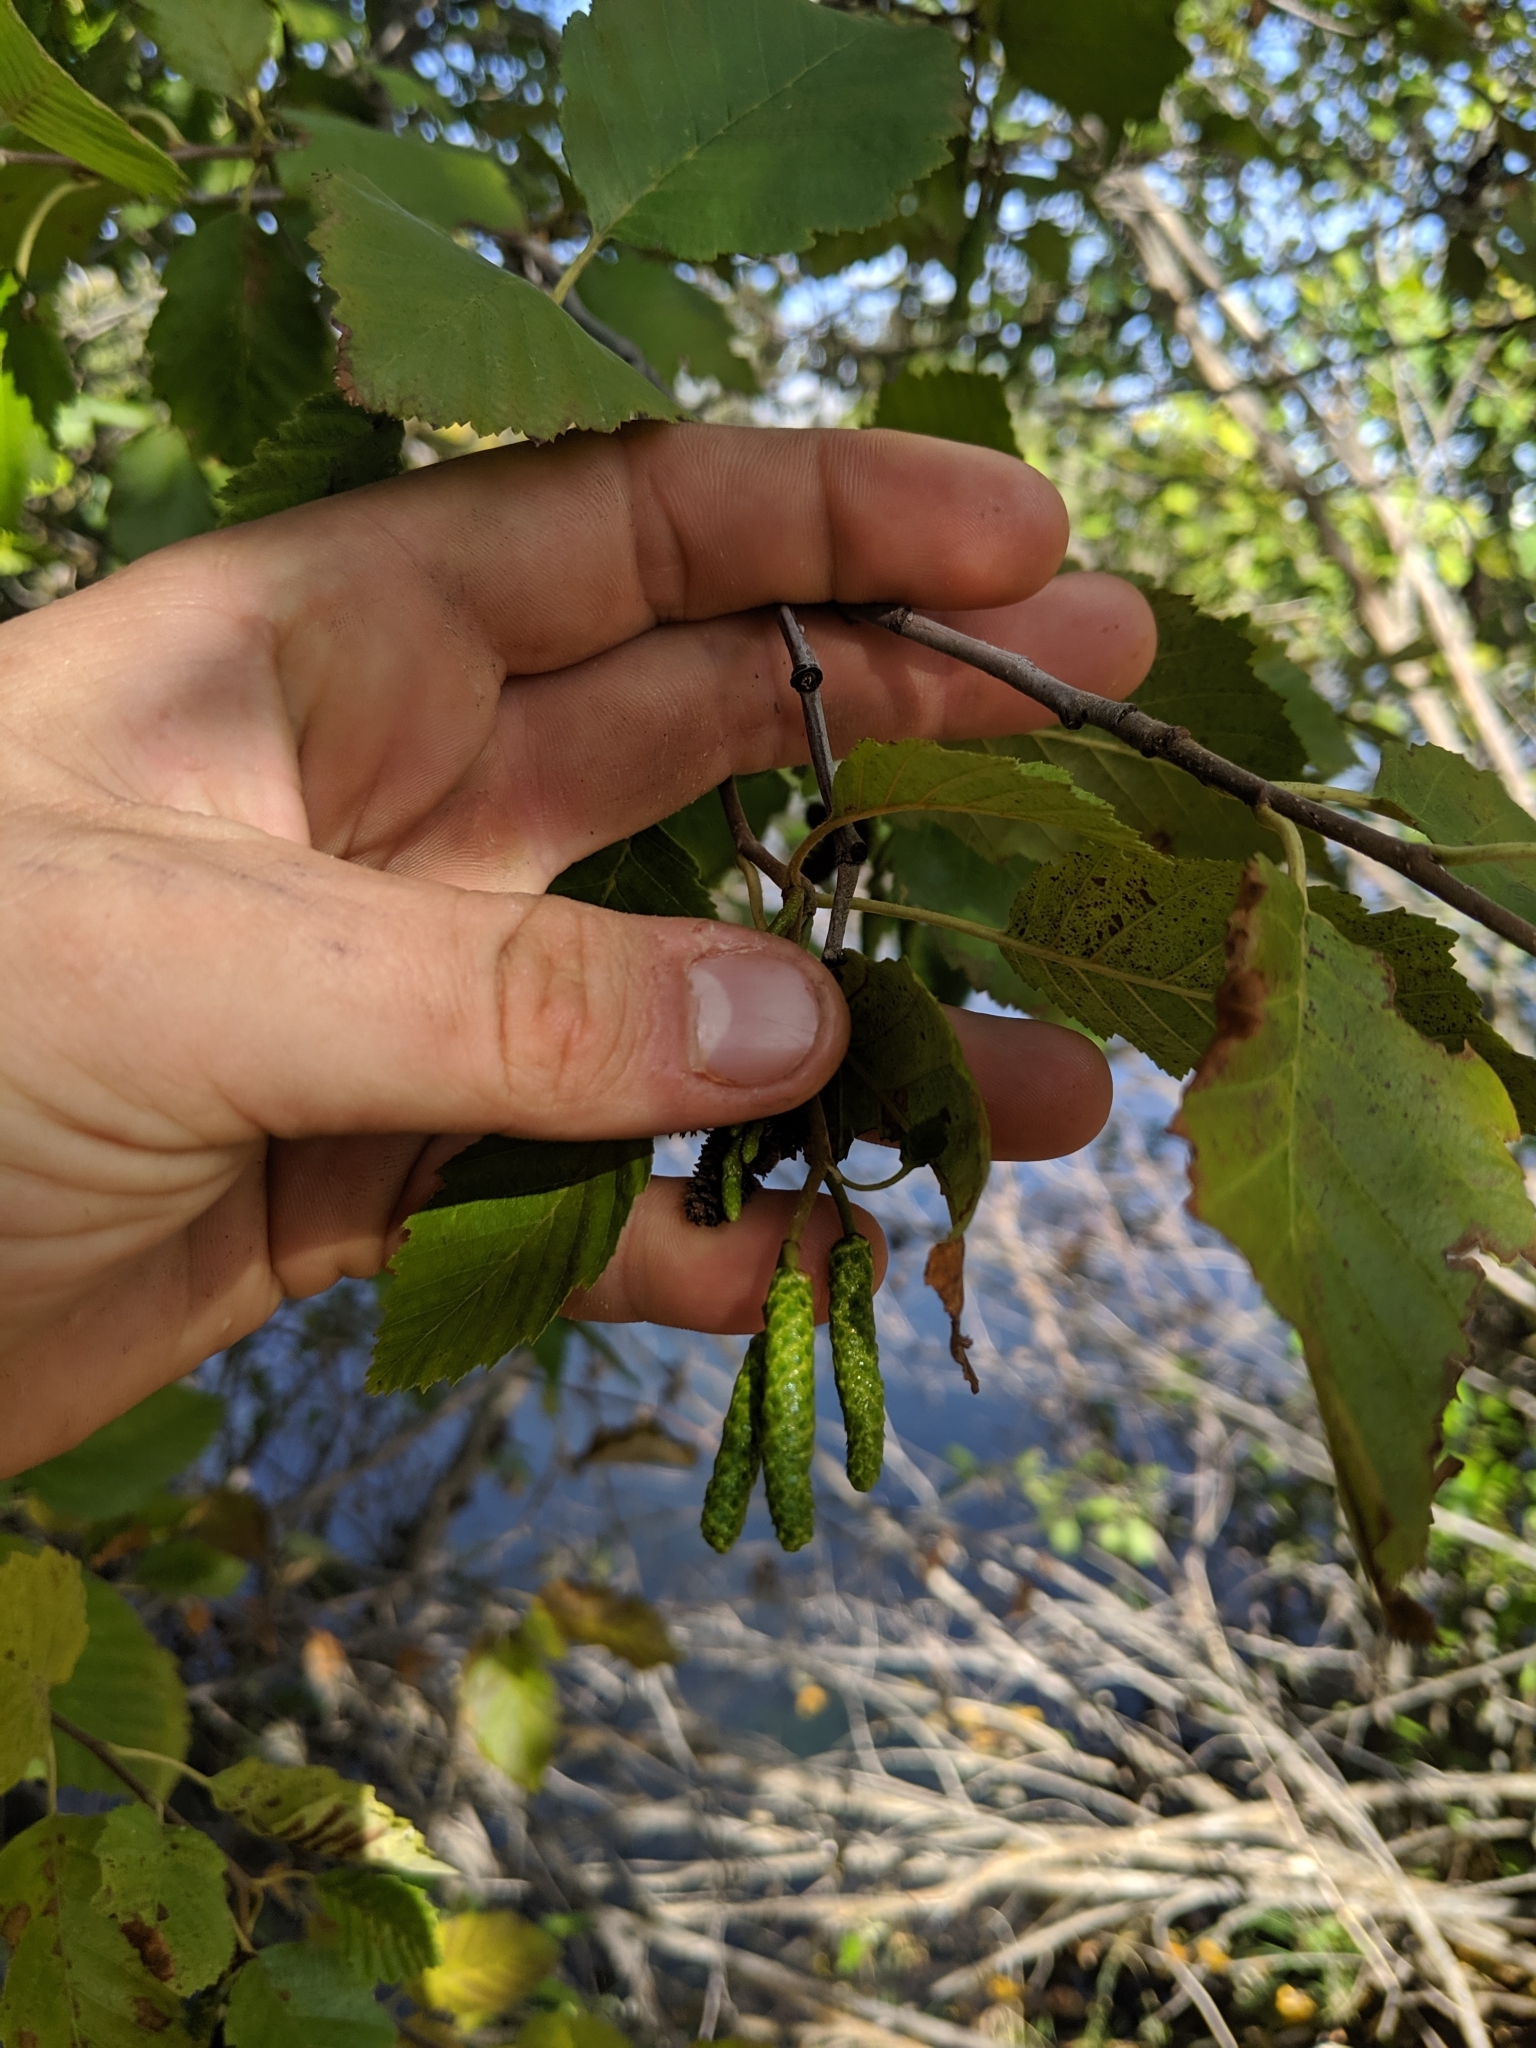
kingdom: Plantae
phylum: Tracheophyta
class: Magnoliopsida
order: Fagales
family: Betulaceae
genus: Alnus
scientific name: Alnus incana
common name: Grey alder
